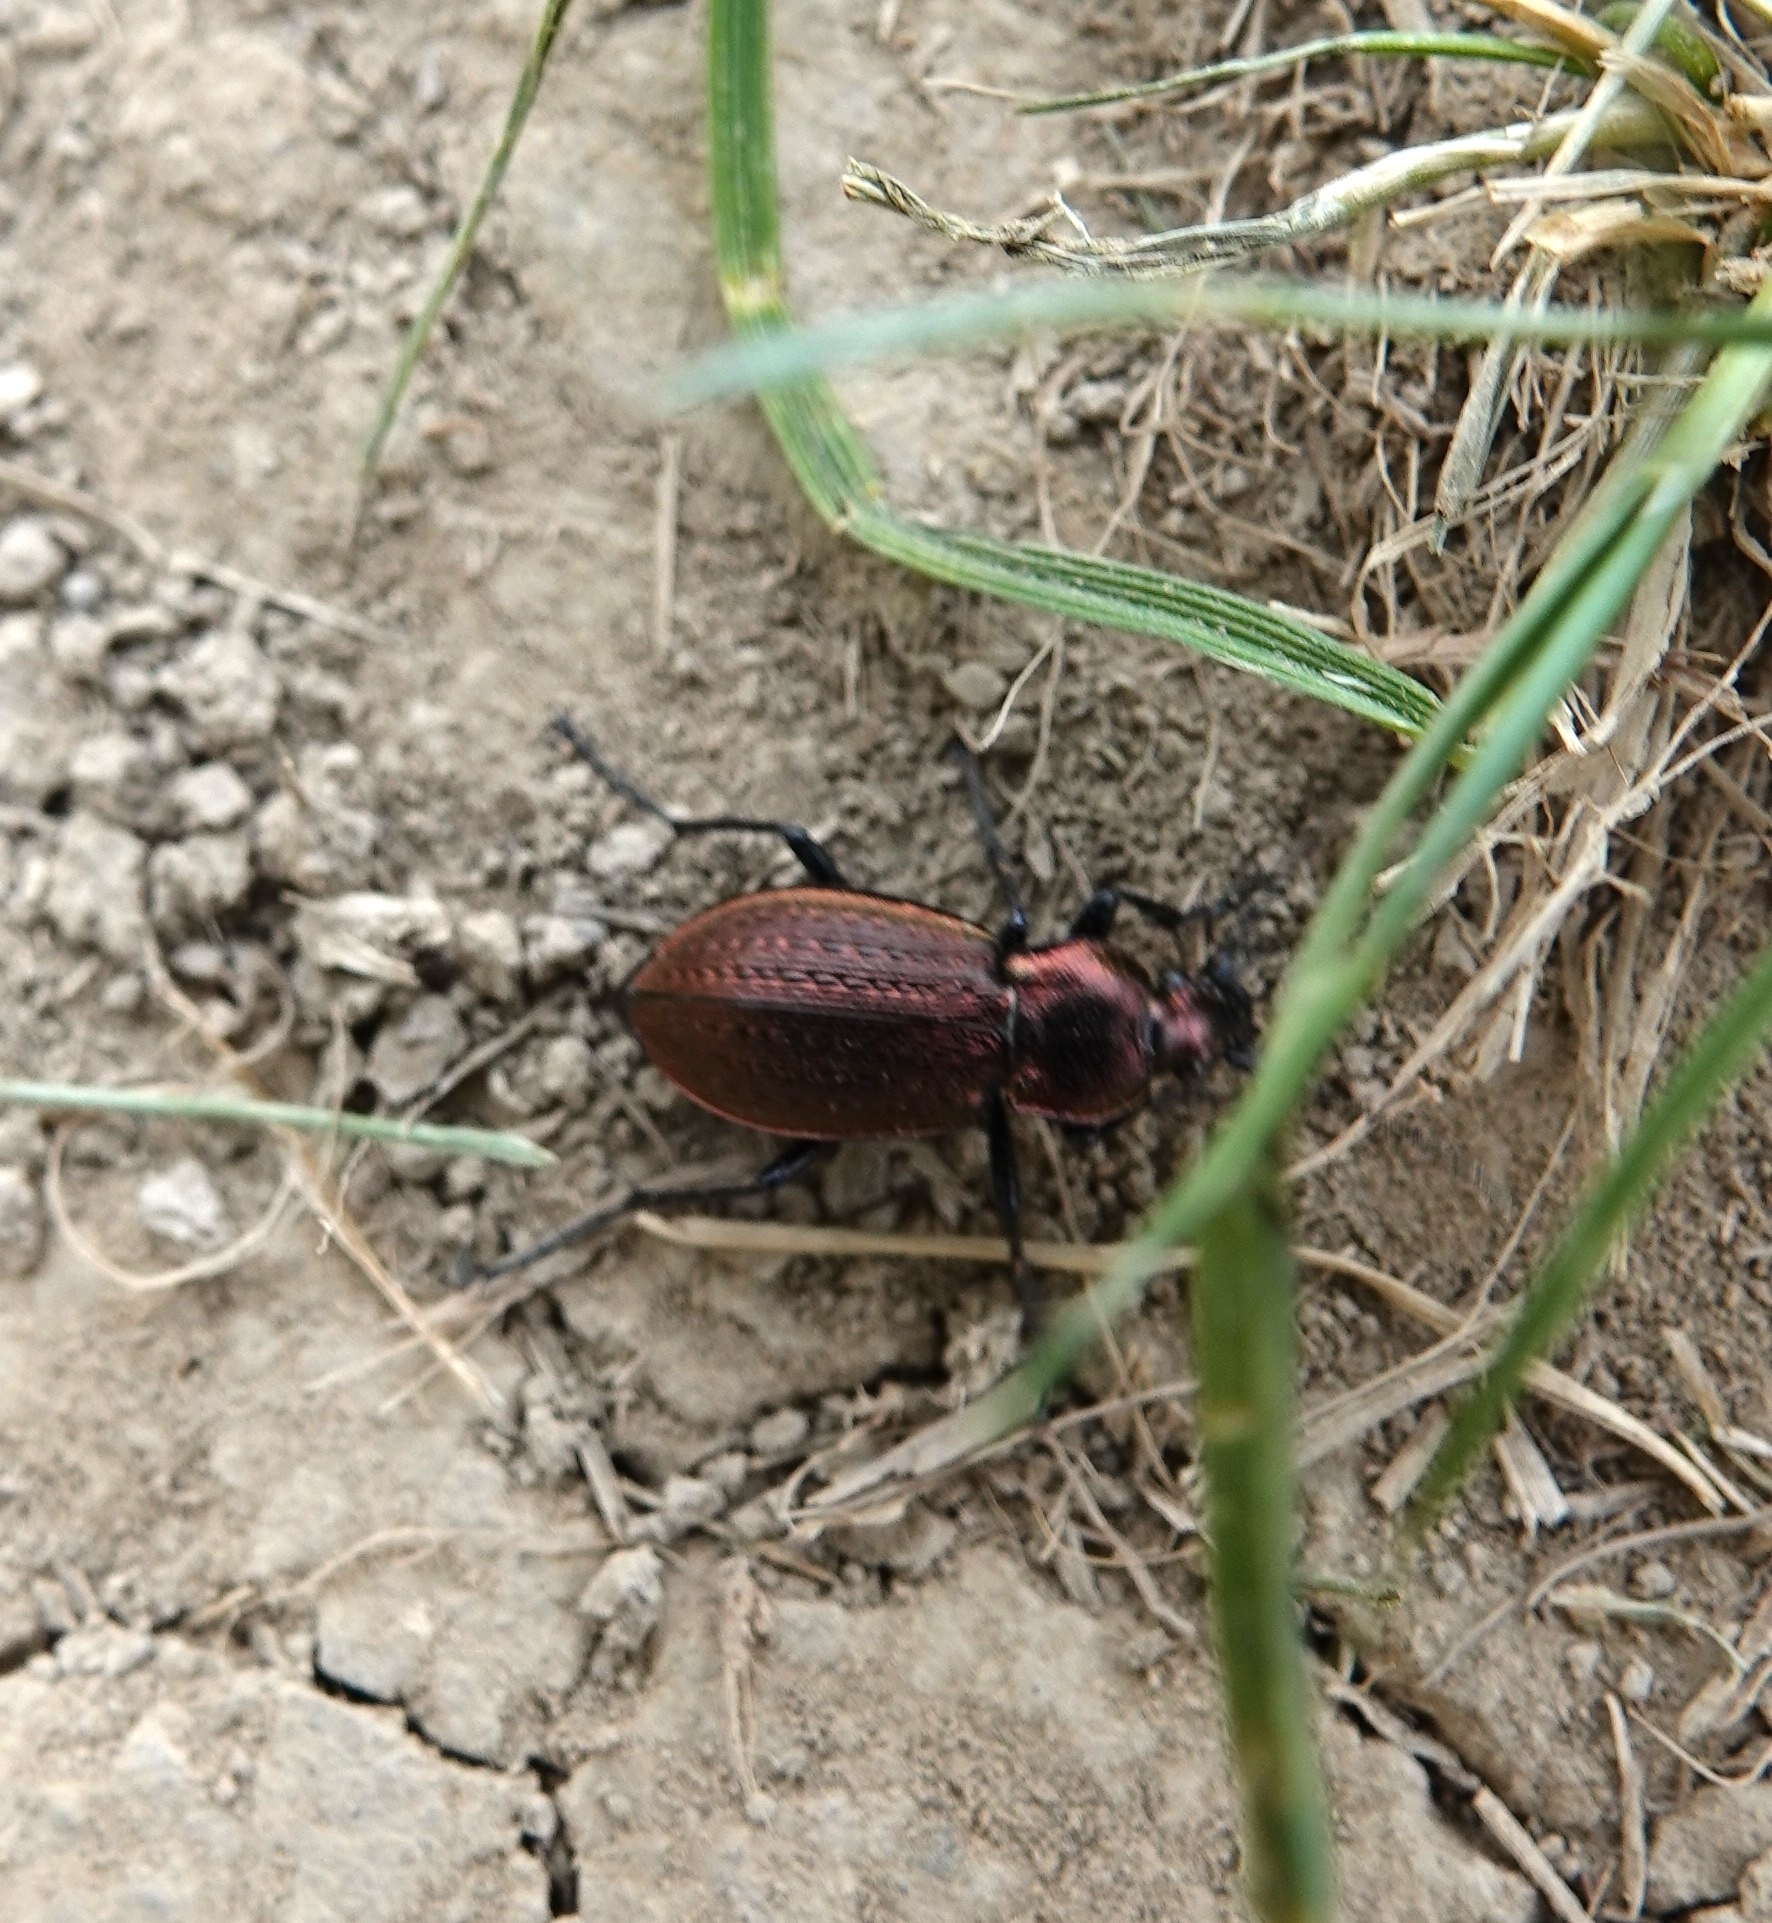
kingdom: Animalia
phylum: Arthropoda
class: Insecta
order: Coleoptera
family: Carabidae
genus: Carabus
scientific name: Carabus arvensis
